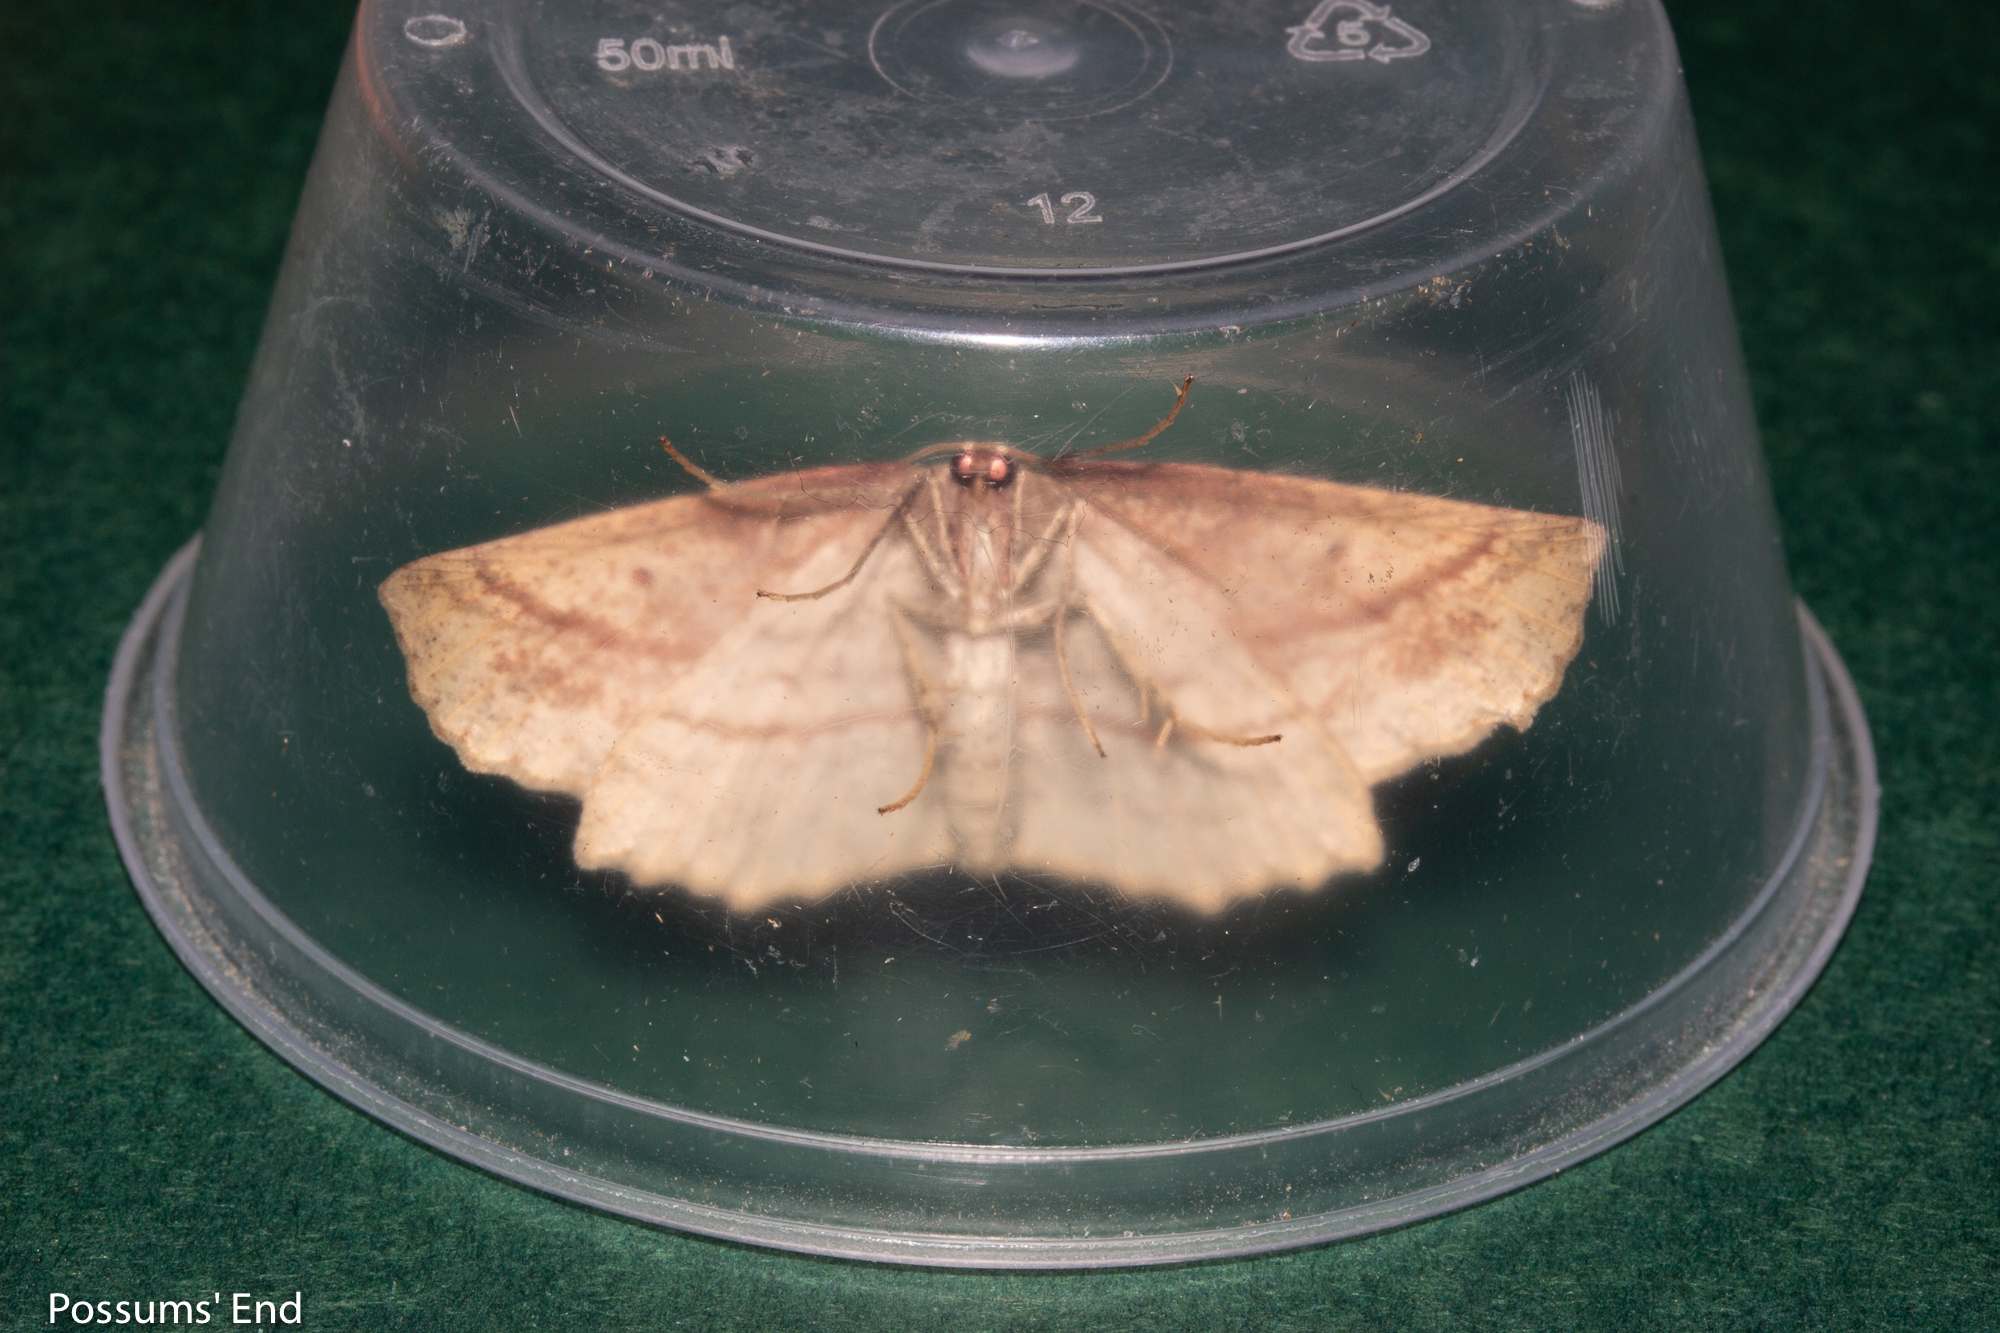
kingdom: Animalia
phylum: Arthropoda
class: Insecta
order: Lepidoptera
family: Geometridae
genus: Xyridacma
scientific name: Xyridacma veronicae
